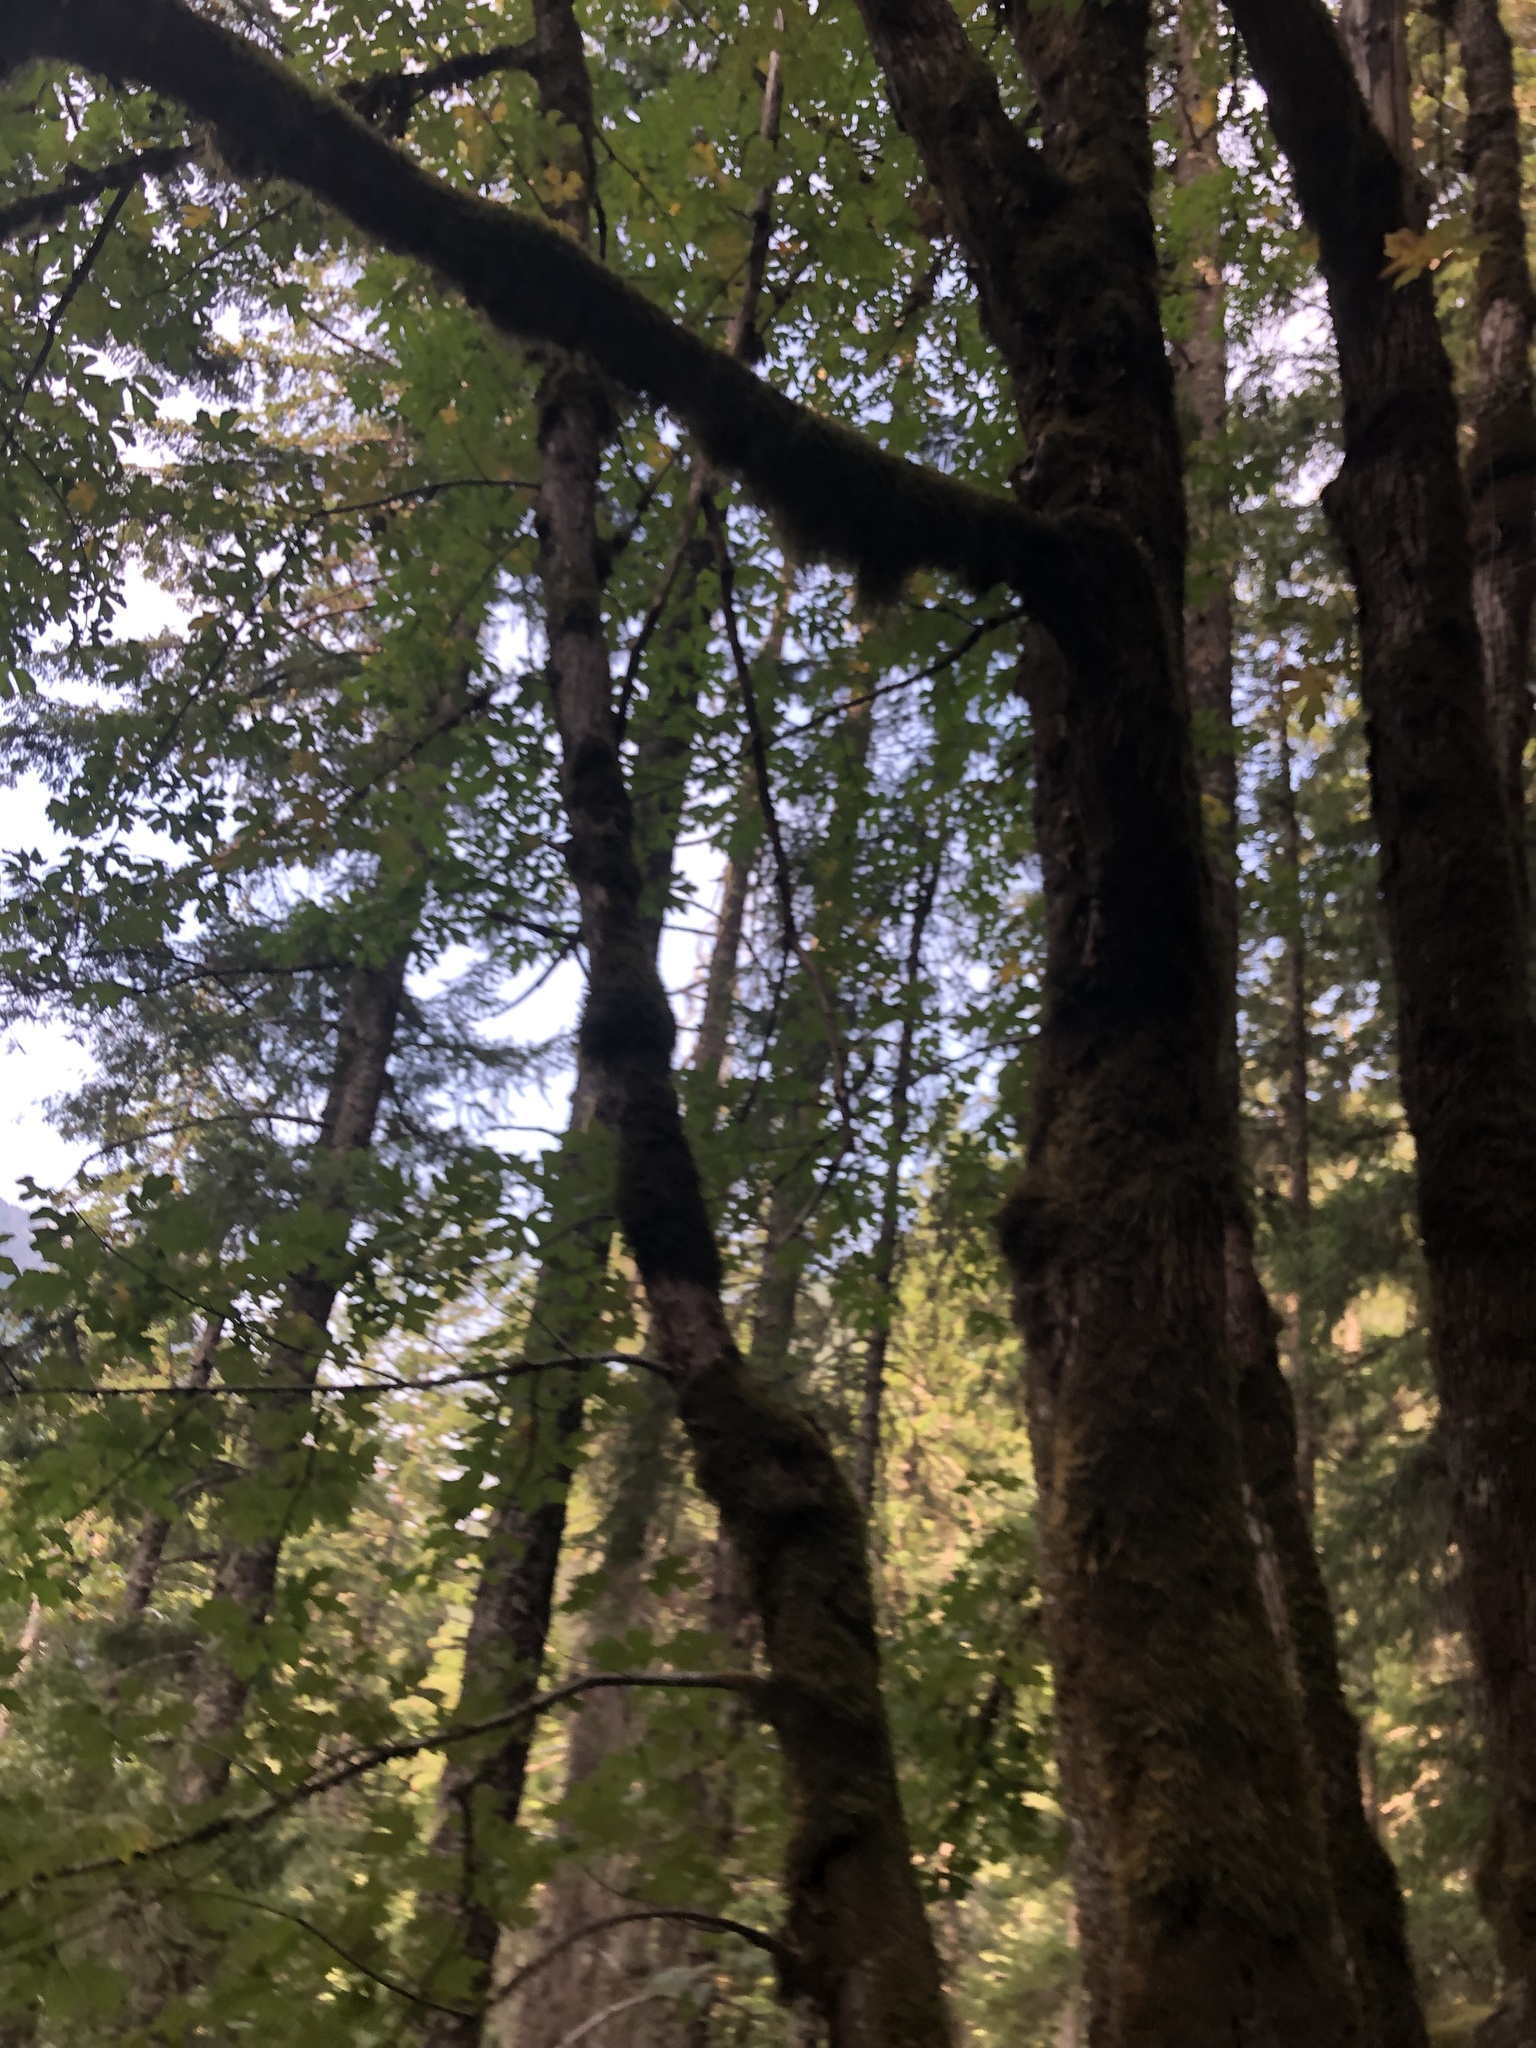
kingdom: Plantae
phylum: Tracheophyta
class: Magnoliopsida
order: Sapindales
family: Sapindaceae
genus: Acer
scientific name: Acer macrophyllum
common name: Oregon maple
